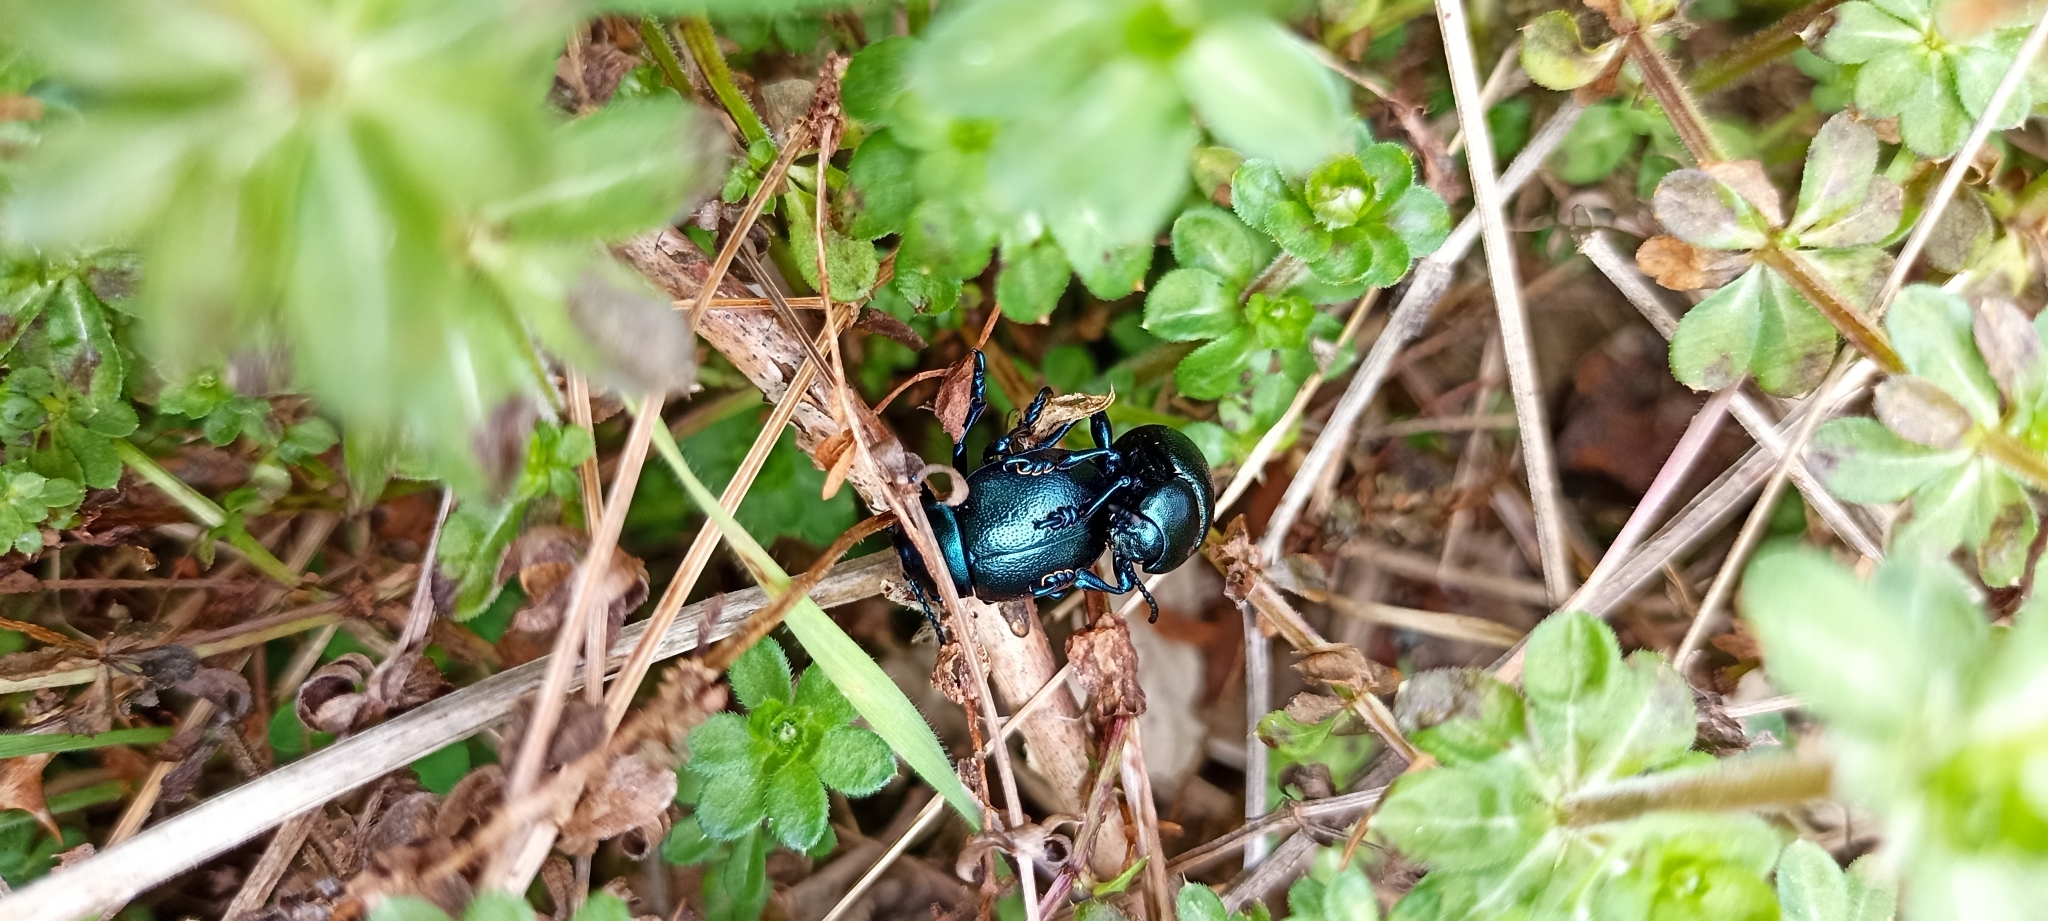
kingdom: Animalia
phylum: Arthropoda
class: Insecta
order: Coleoptera
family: Chrysomelidae
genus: Timarcha
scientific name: Timarcha goettingensis
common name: Small bloody-nosed beetle
